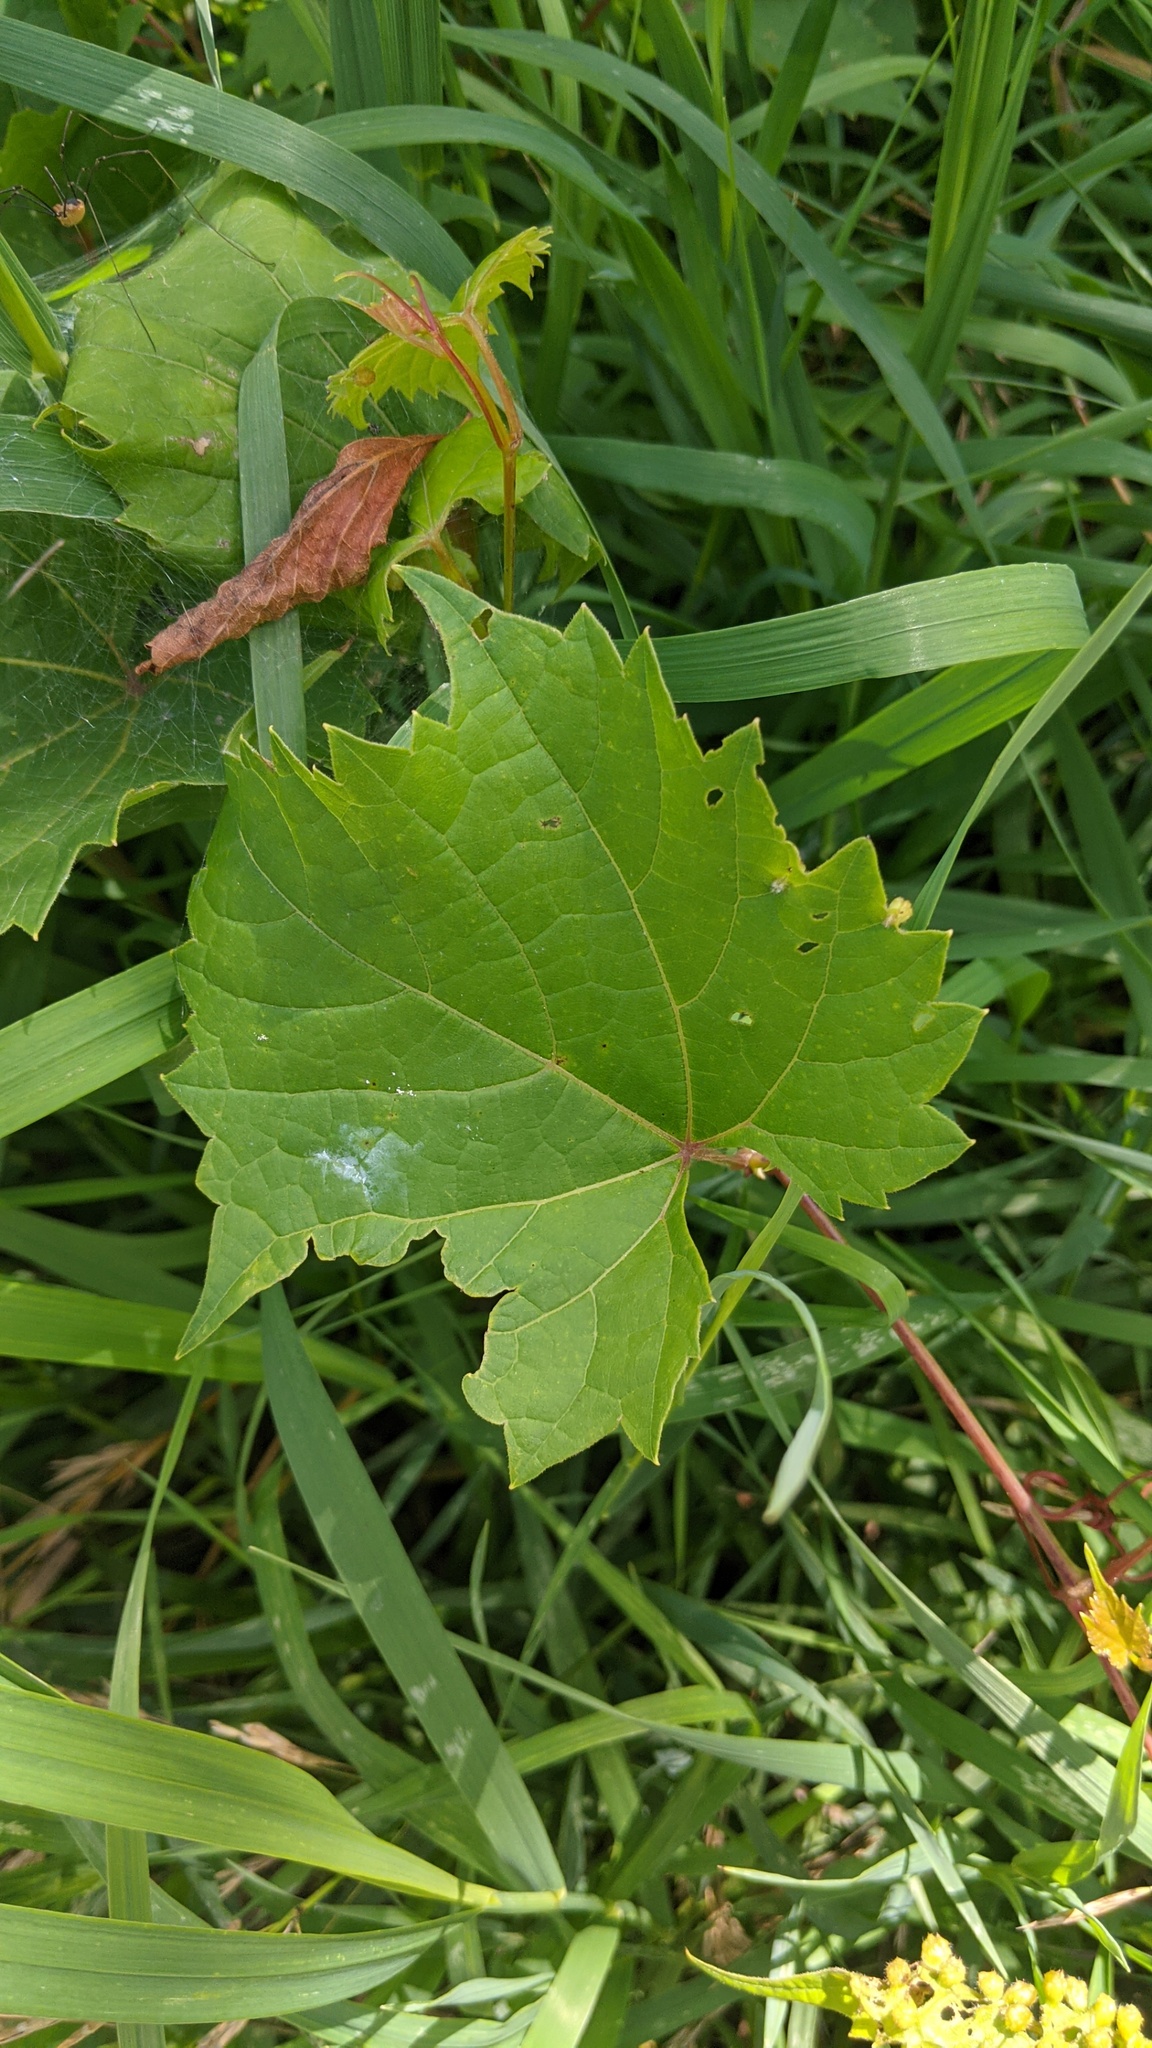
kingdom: Plantae
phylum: Tracheophyta
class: Magnoliopsida
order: Vitales
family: Vitaceae
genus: Vitis
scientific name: Vitis riparia
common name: Frost grape
